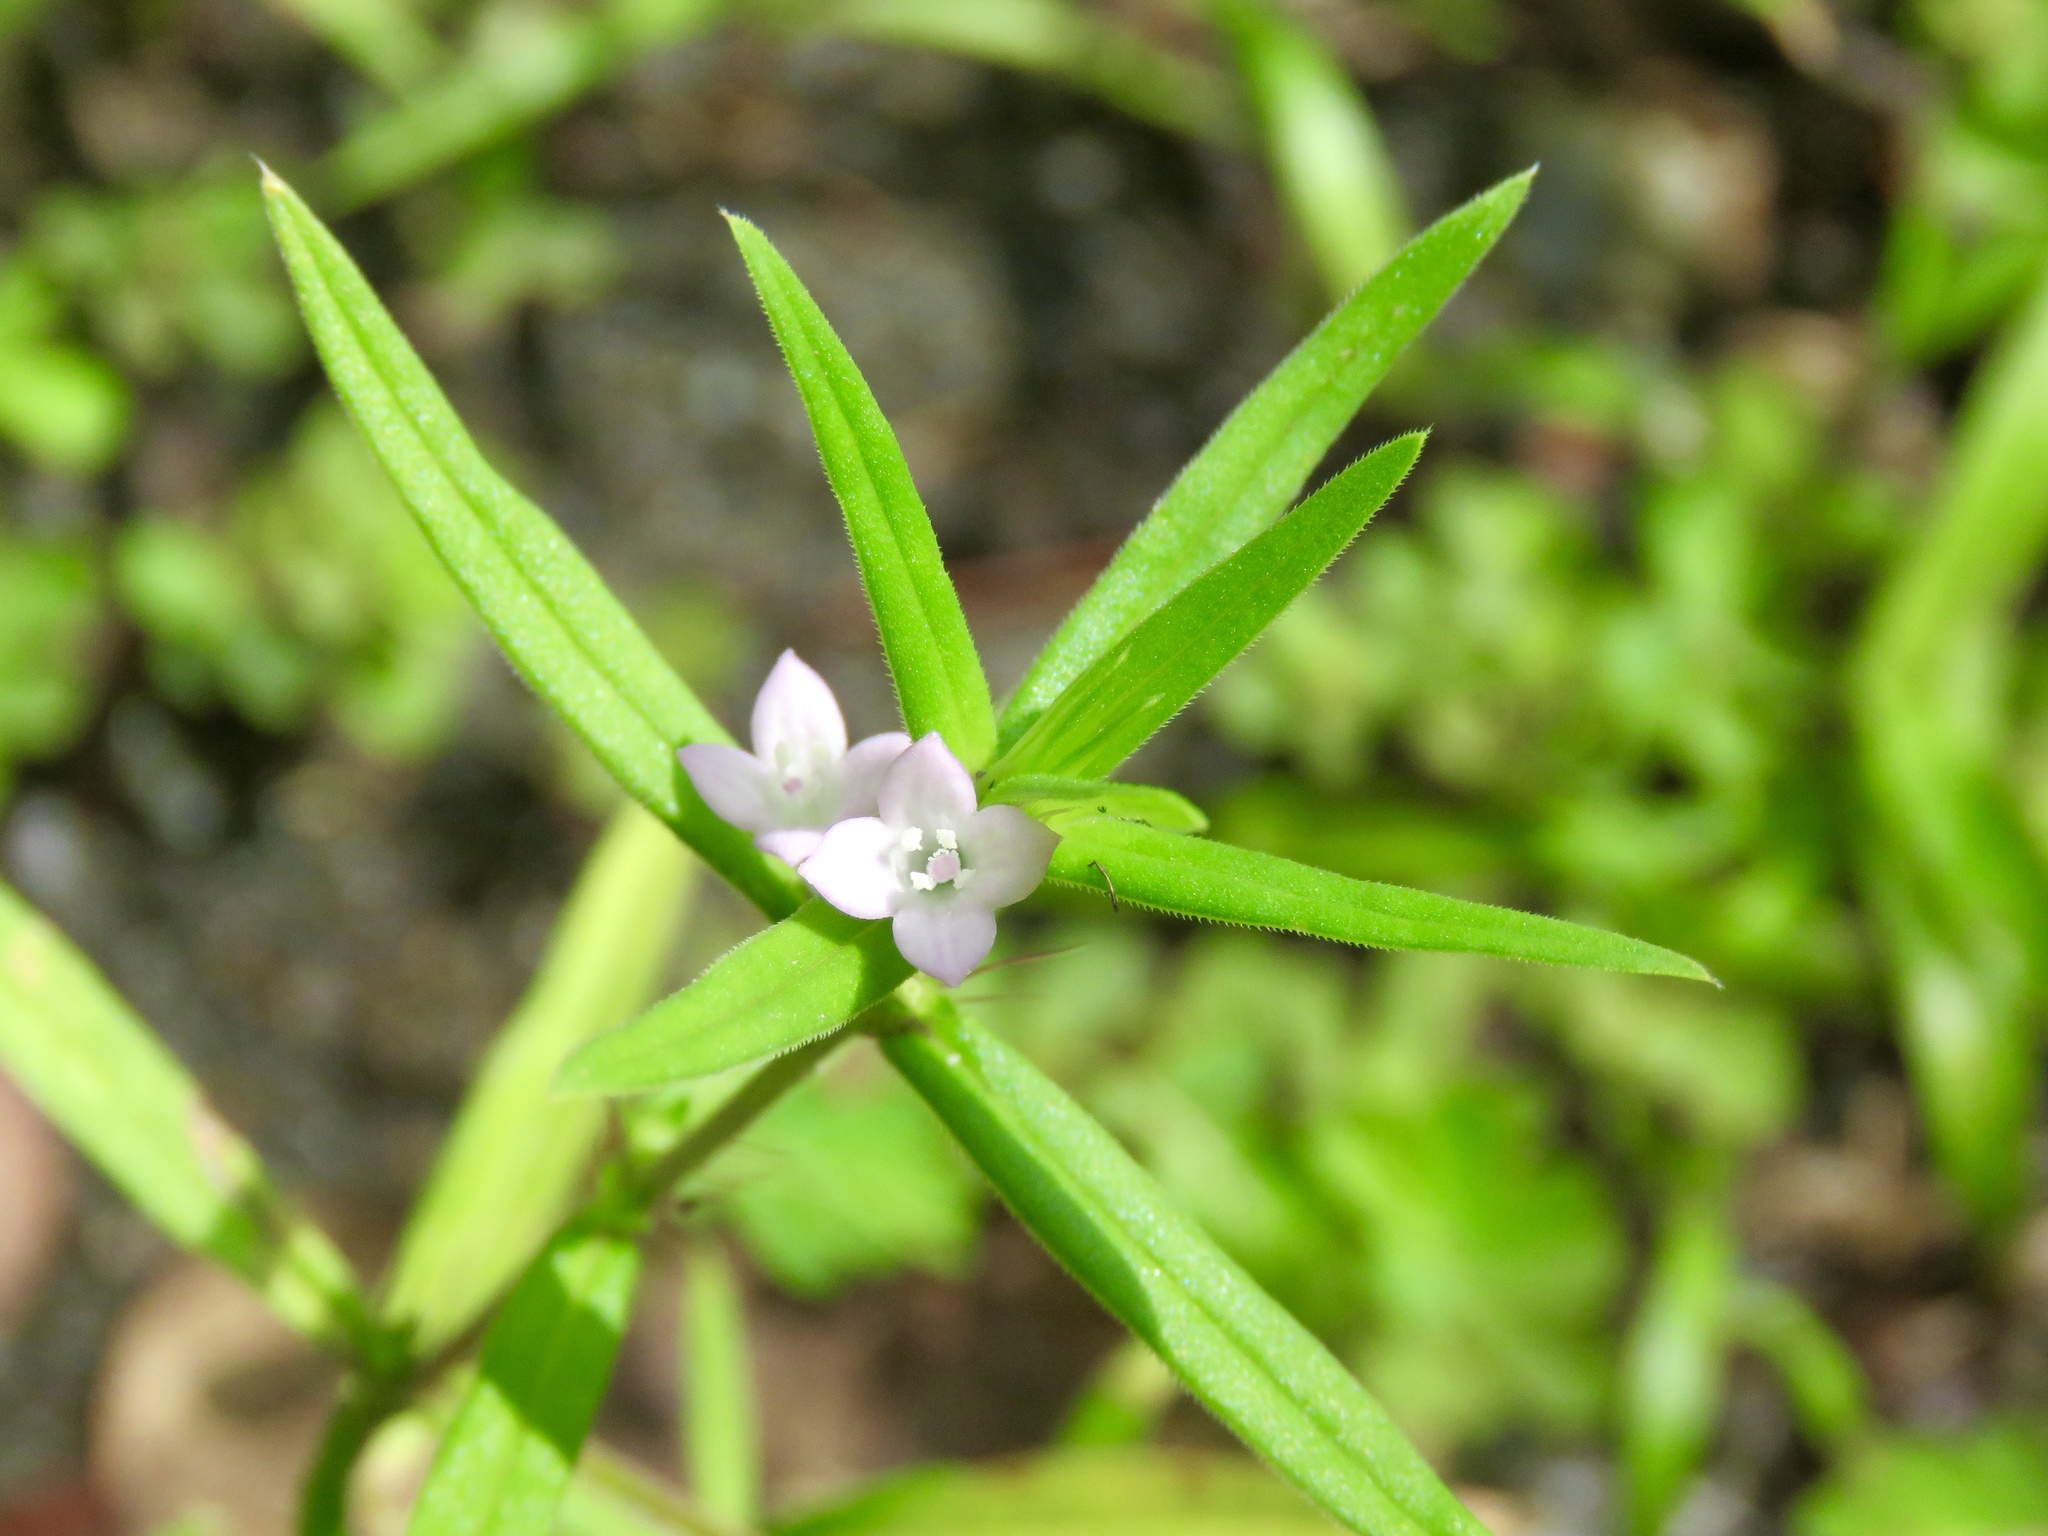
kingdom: Plantae
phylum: Tracheophyta
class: Magnoliopsida
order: Gentianales
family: Rubiaceae
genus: Hexasepalum
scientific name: Hexasepalum teres
